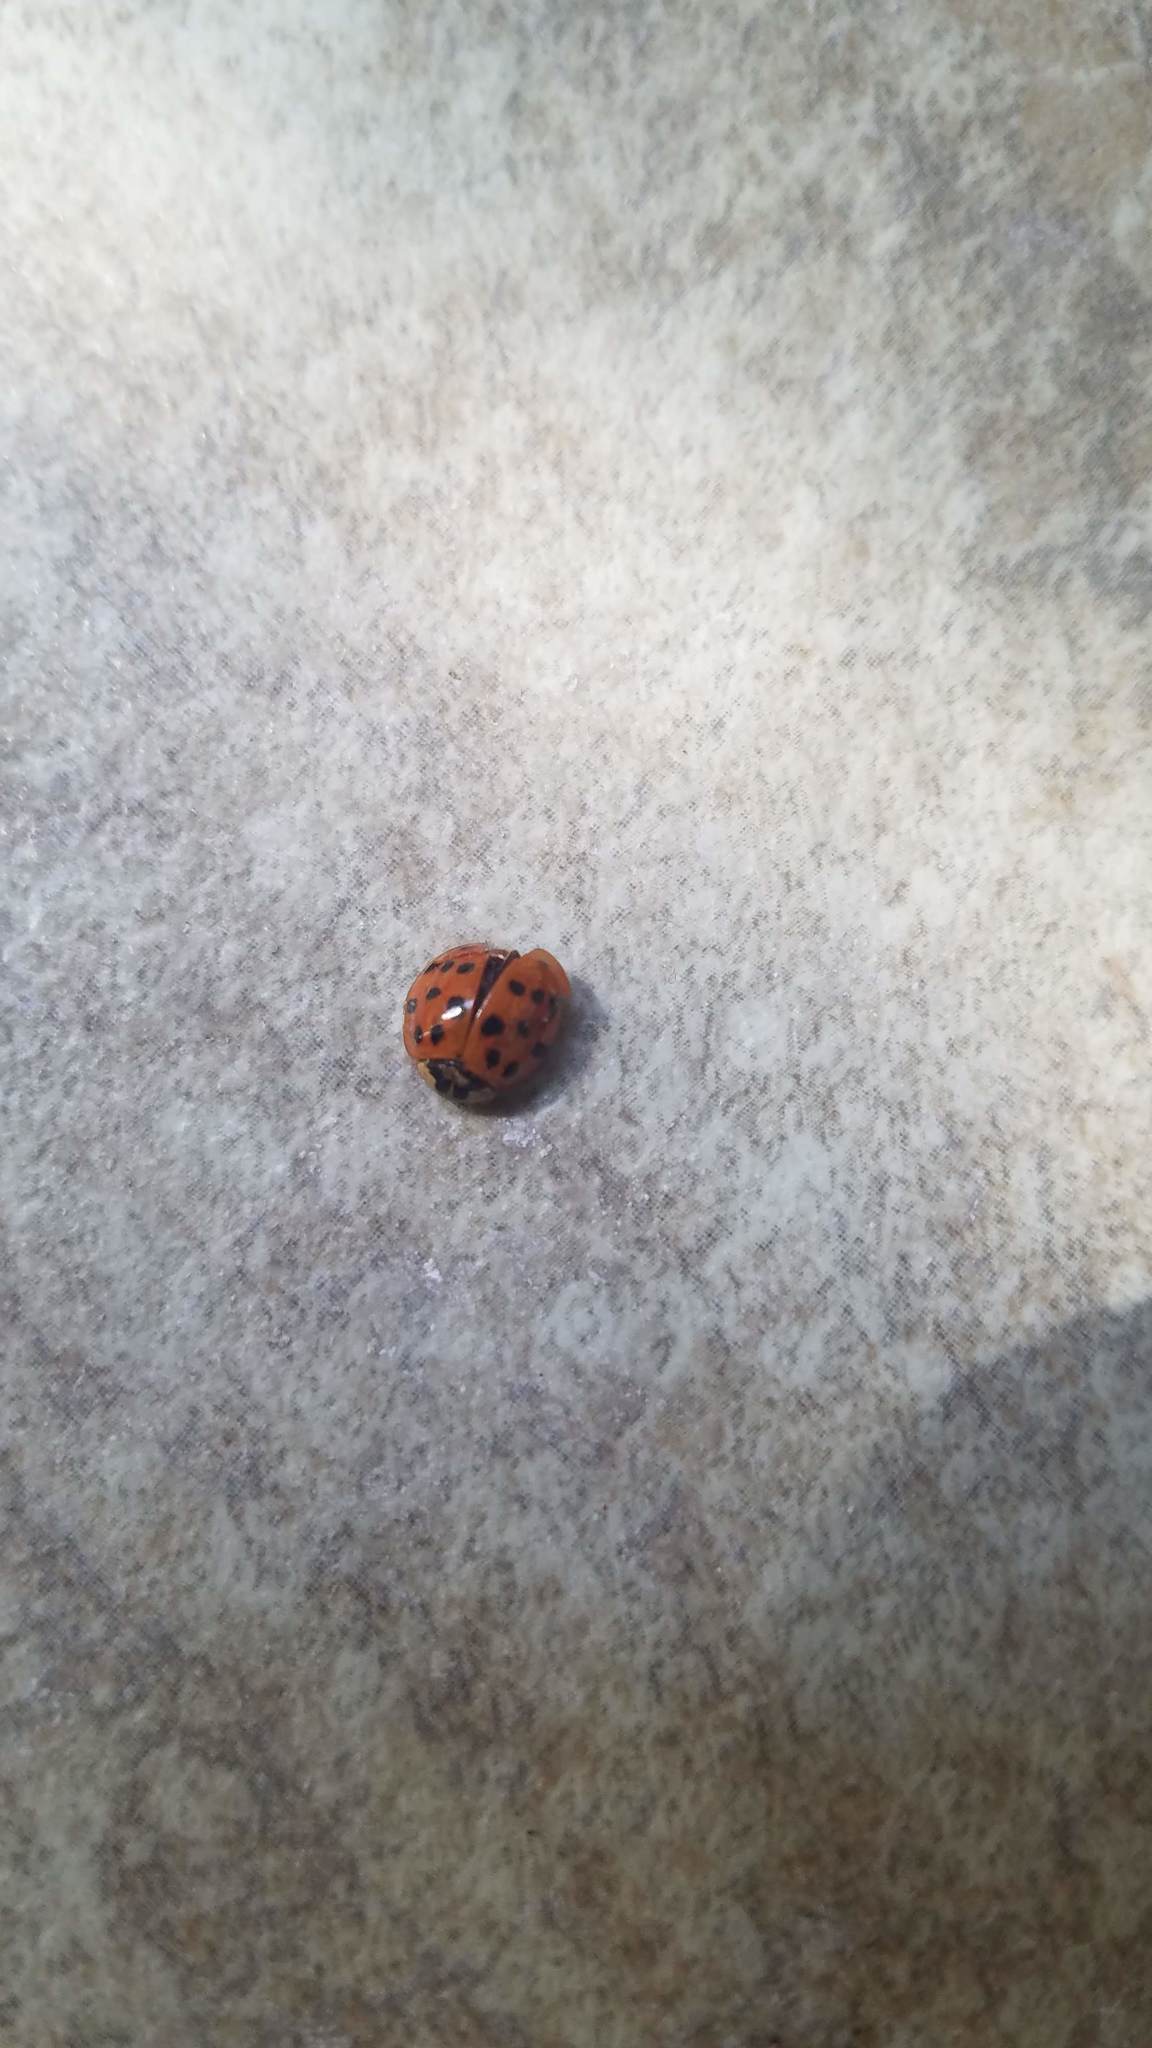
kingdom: Animalia
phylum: Arthropoda
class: Insecta
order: Coleoptera
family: Coccinellidae
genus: Harmonia
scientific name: Harmonia axyridis
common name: Harlequin ladybird
